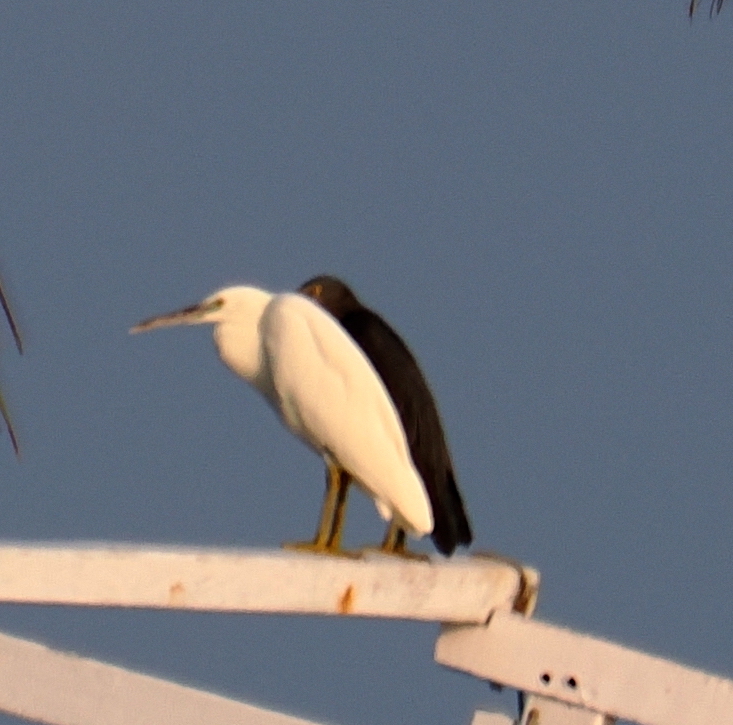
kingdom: Animalia
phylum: Chordata
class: Aves
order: Pelecaniformes
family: Ardeidae
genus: Egretta
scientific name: Egretta sacra
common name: Pacific reef heron
